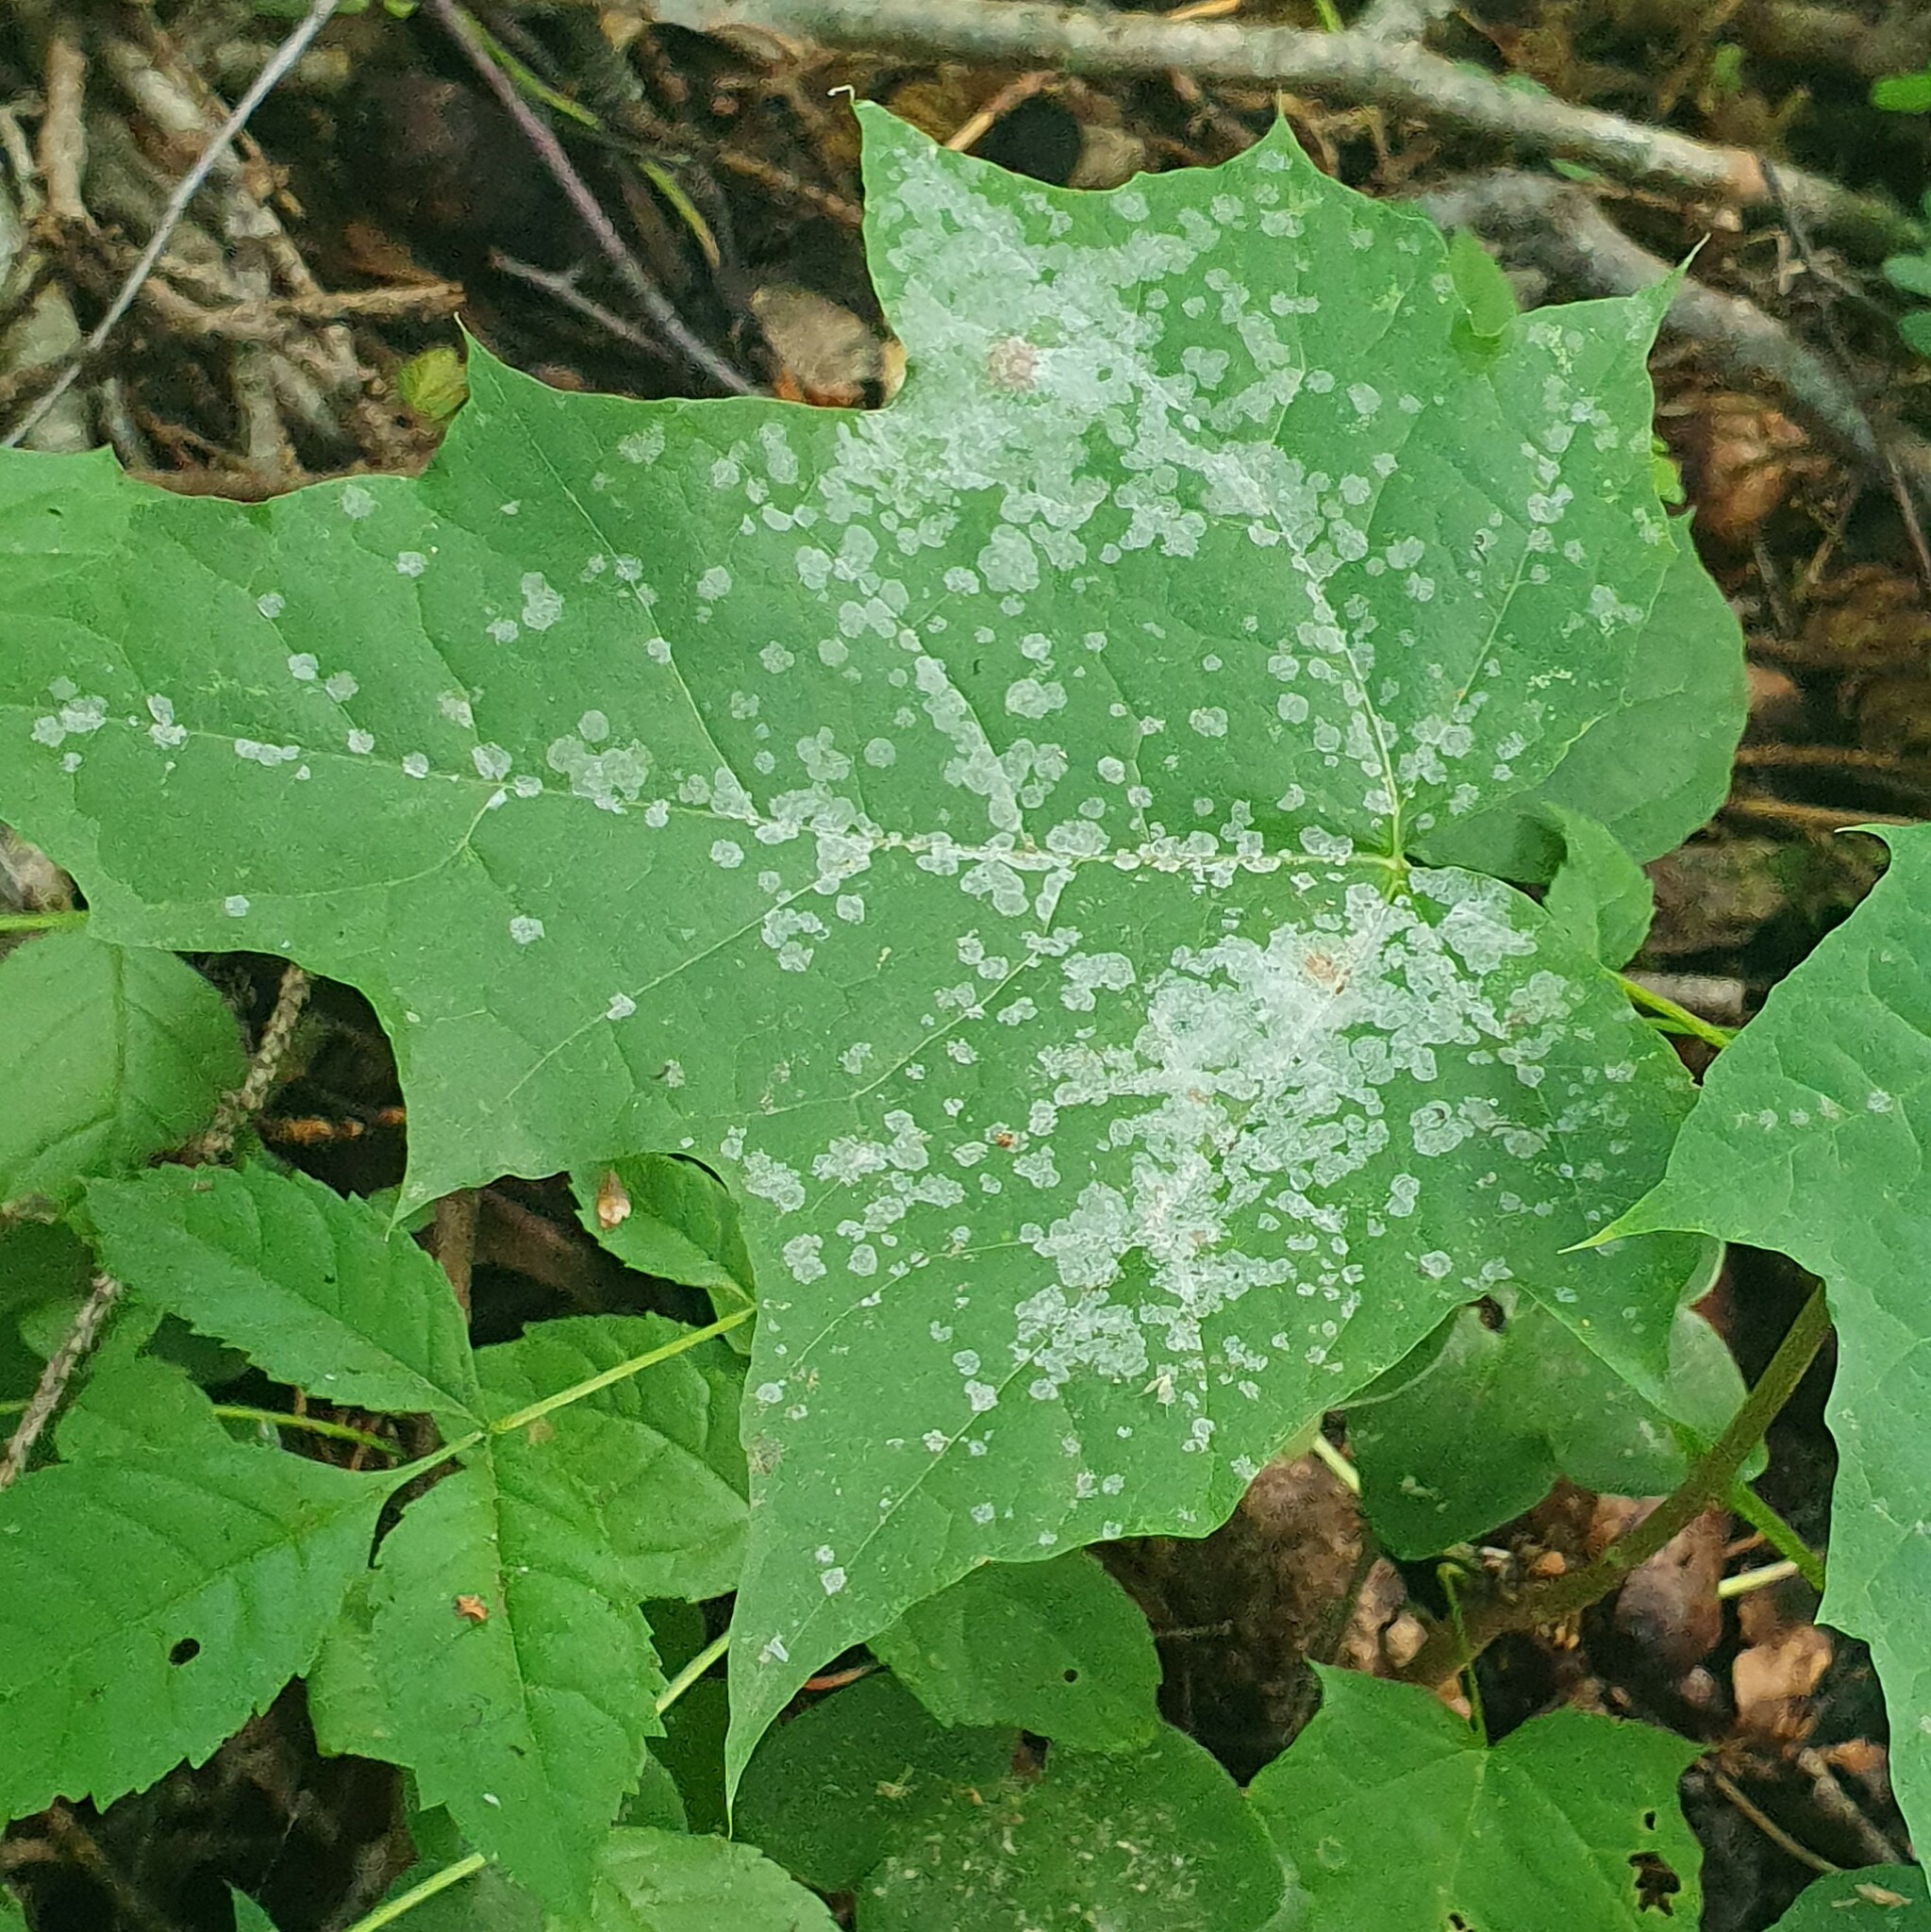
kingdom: Fungi
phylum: Ascomycota
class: Leotiomycetes
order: Helotiales
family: Erysiphaceae
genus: Sawadaea
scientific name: Sawadaea tulasnei
